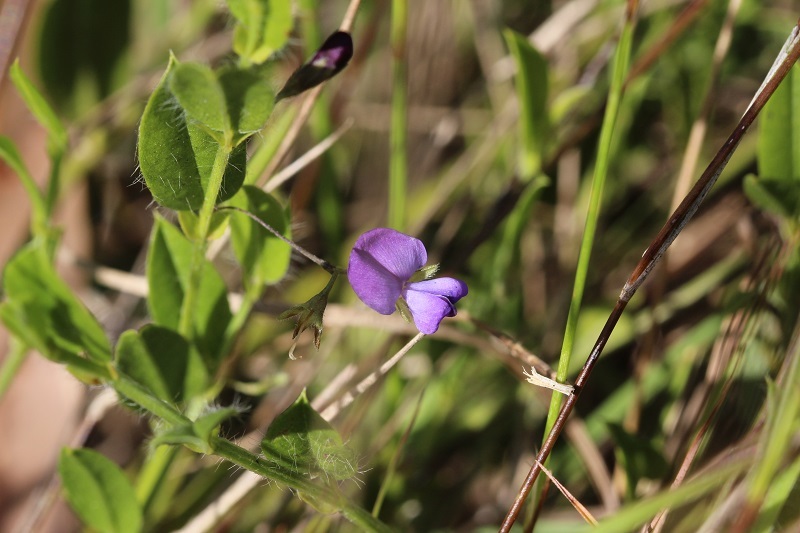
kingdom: Plantae
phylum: Tracheophyta
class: Magnoliopsida
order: Fabales
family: Fabaceae
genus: Psoralea
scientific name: Psoralea plauta
